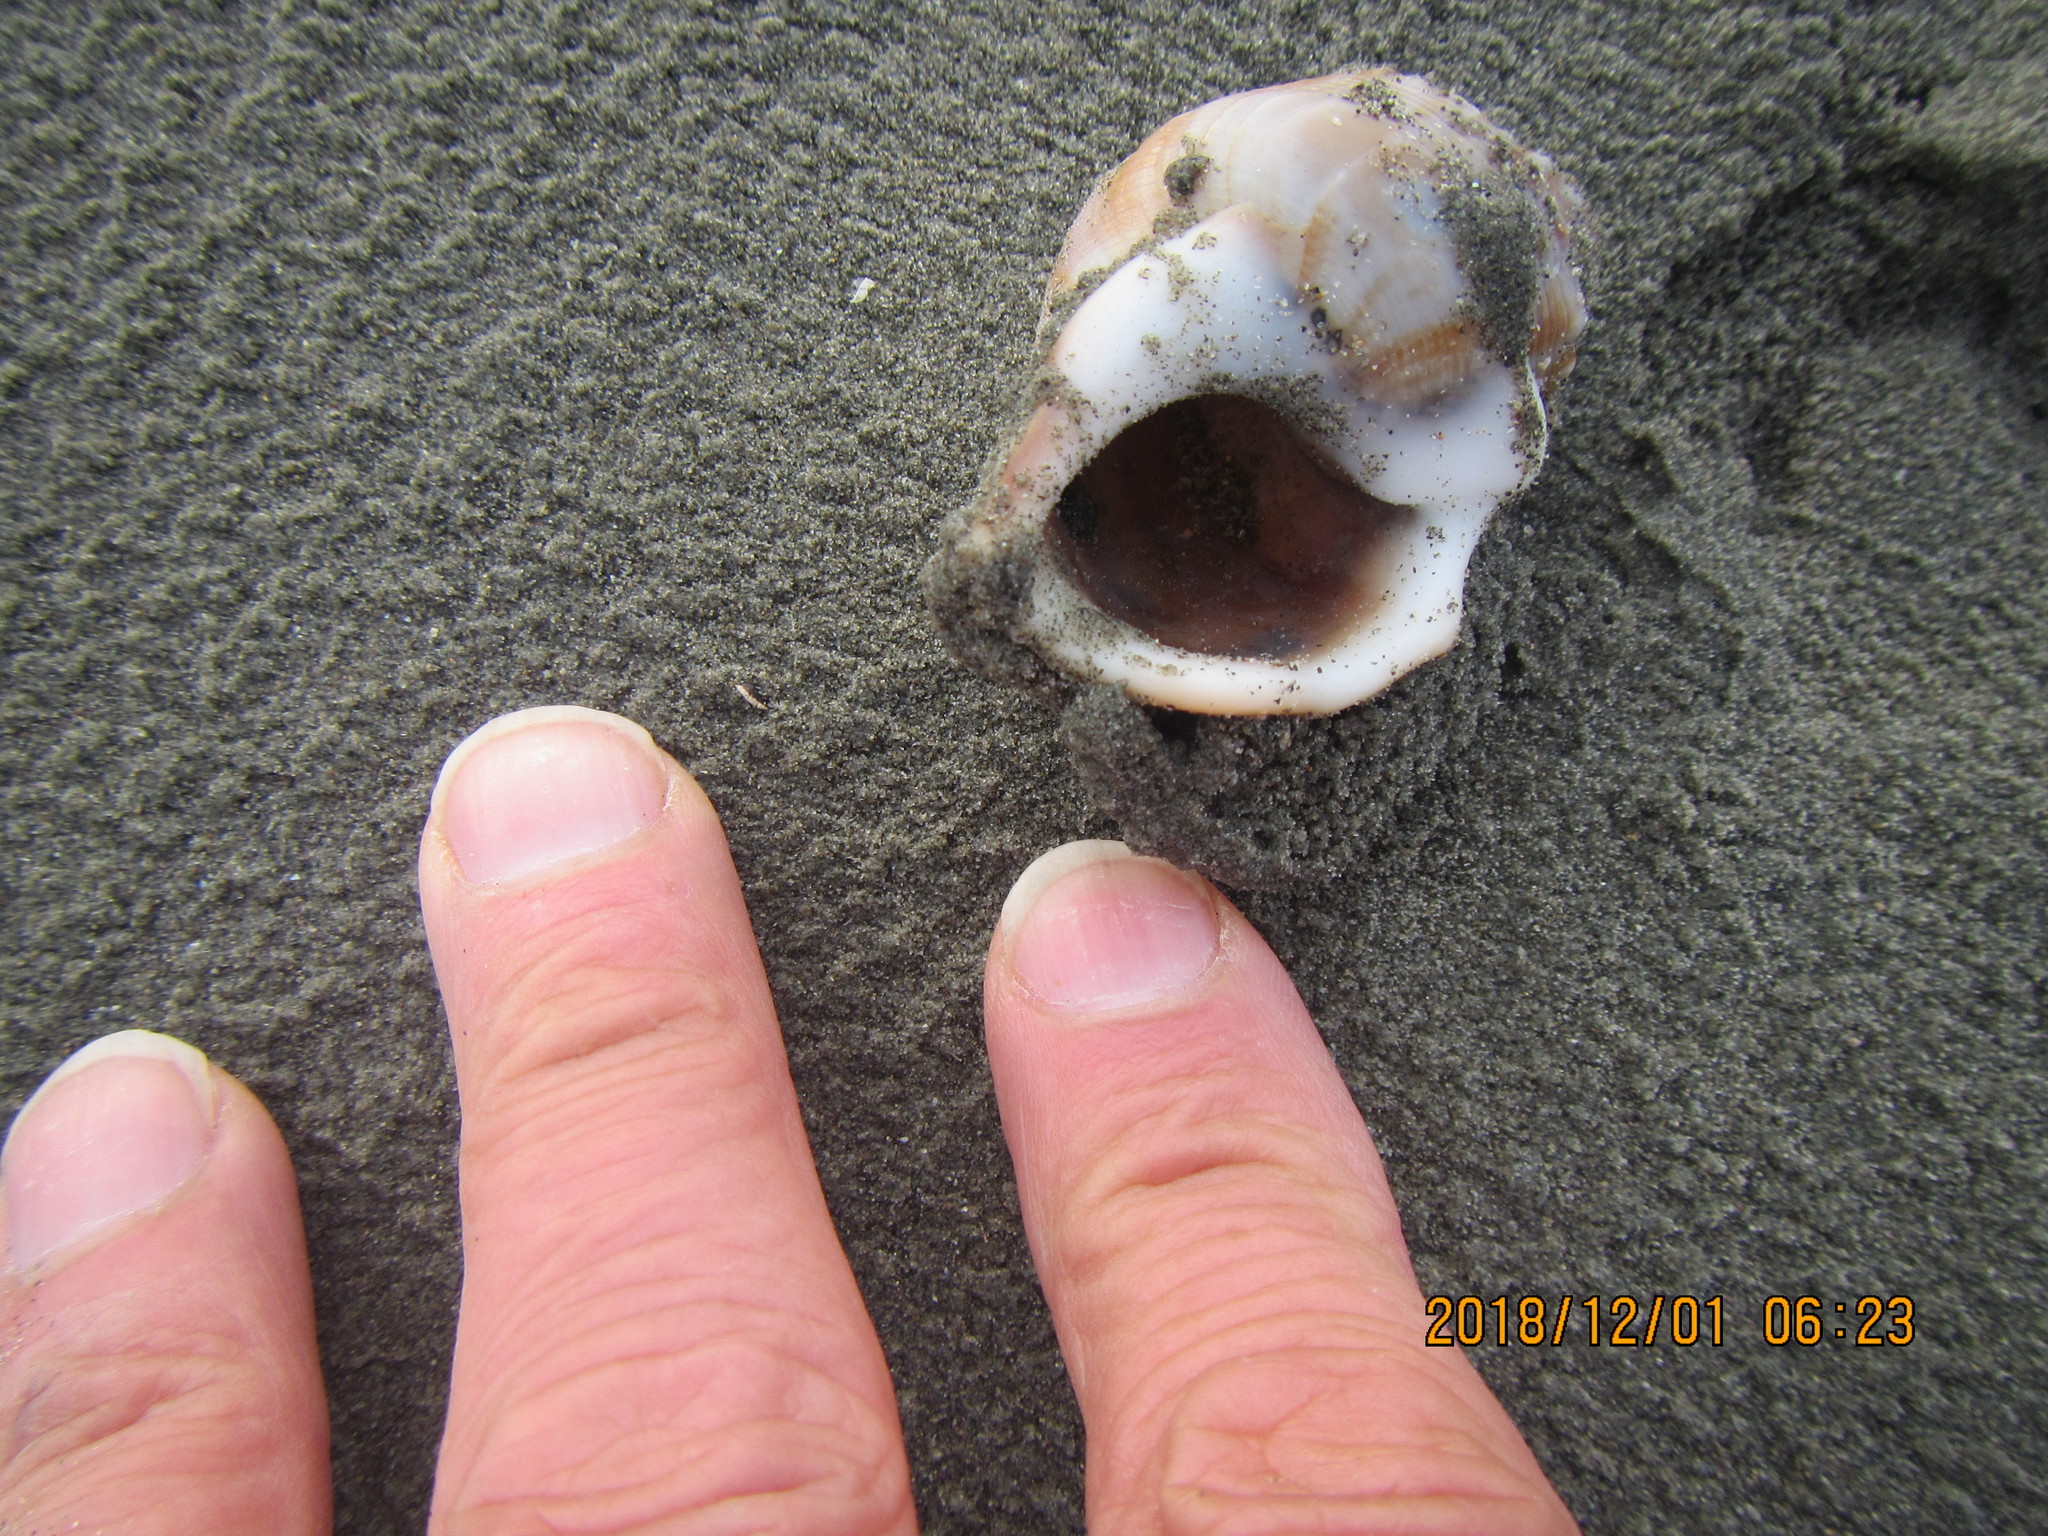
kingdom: Animalia
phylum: Mollusca
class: Gastropoda
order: Littorinimorpha
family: Struthiolariidae
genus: Struthiolaria
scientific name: Struthiolaria papulosa
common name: Large ostrich foot
